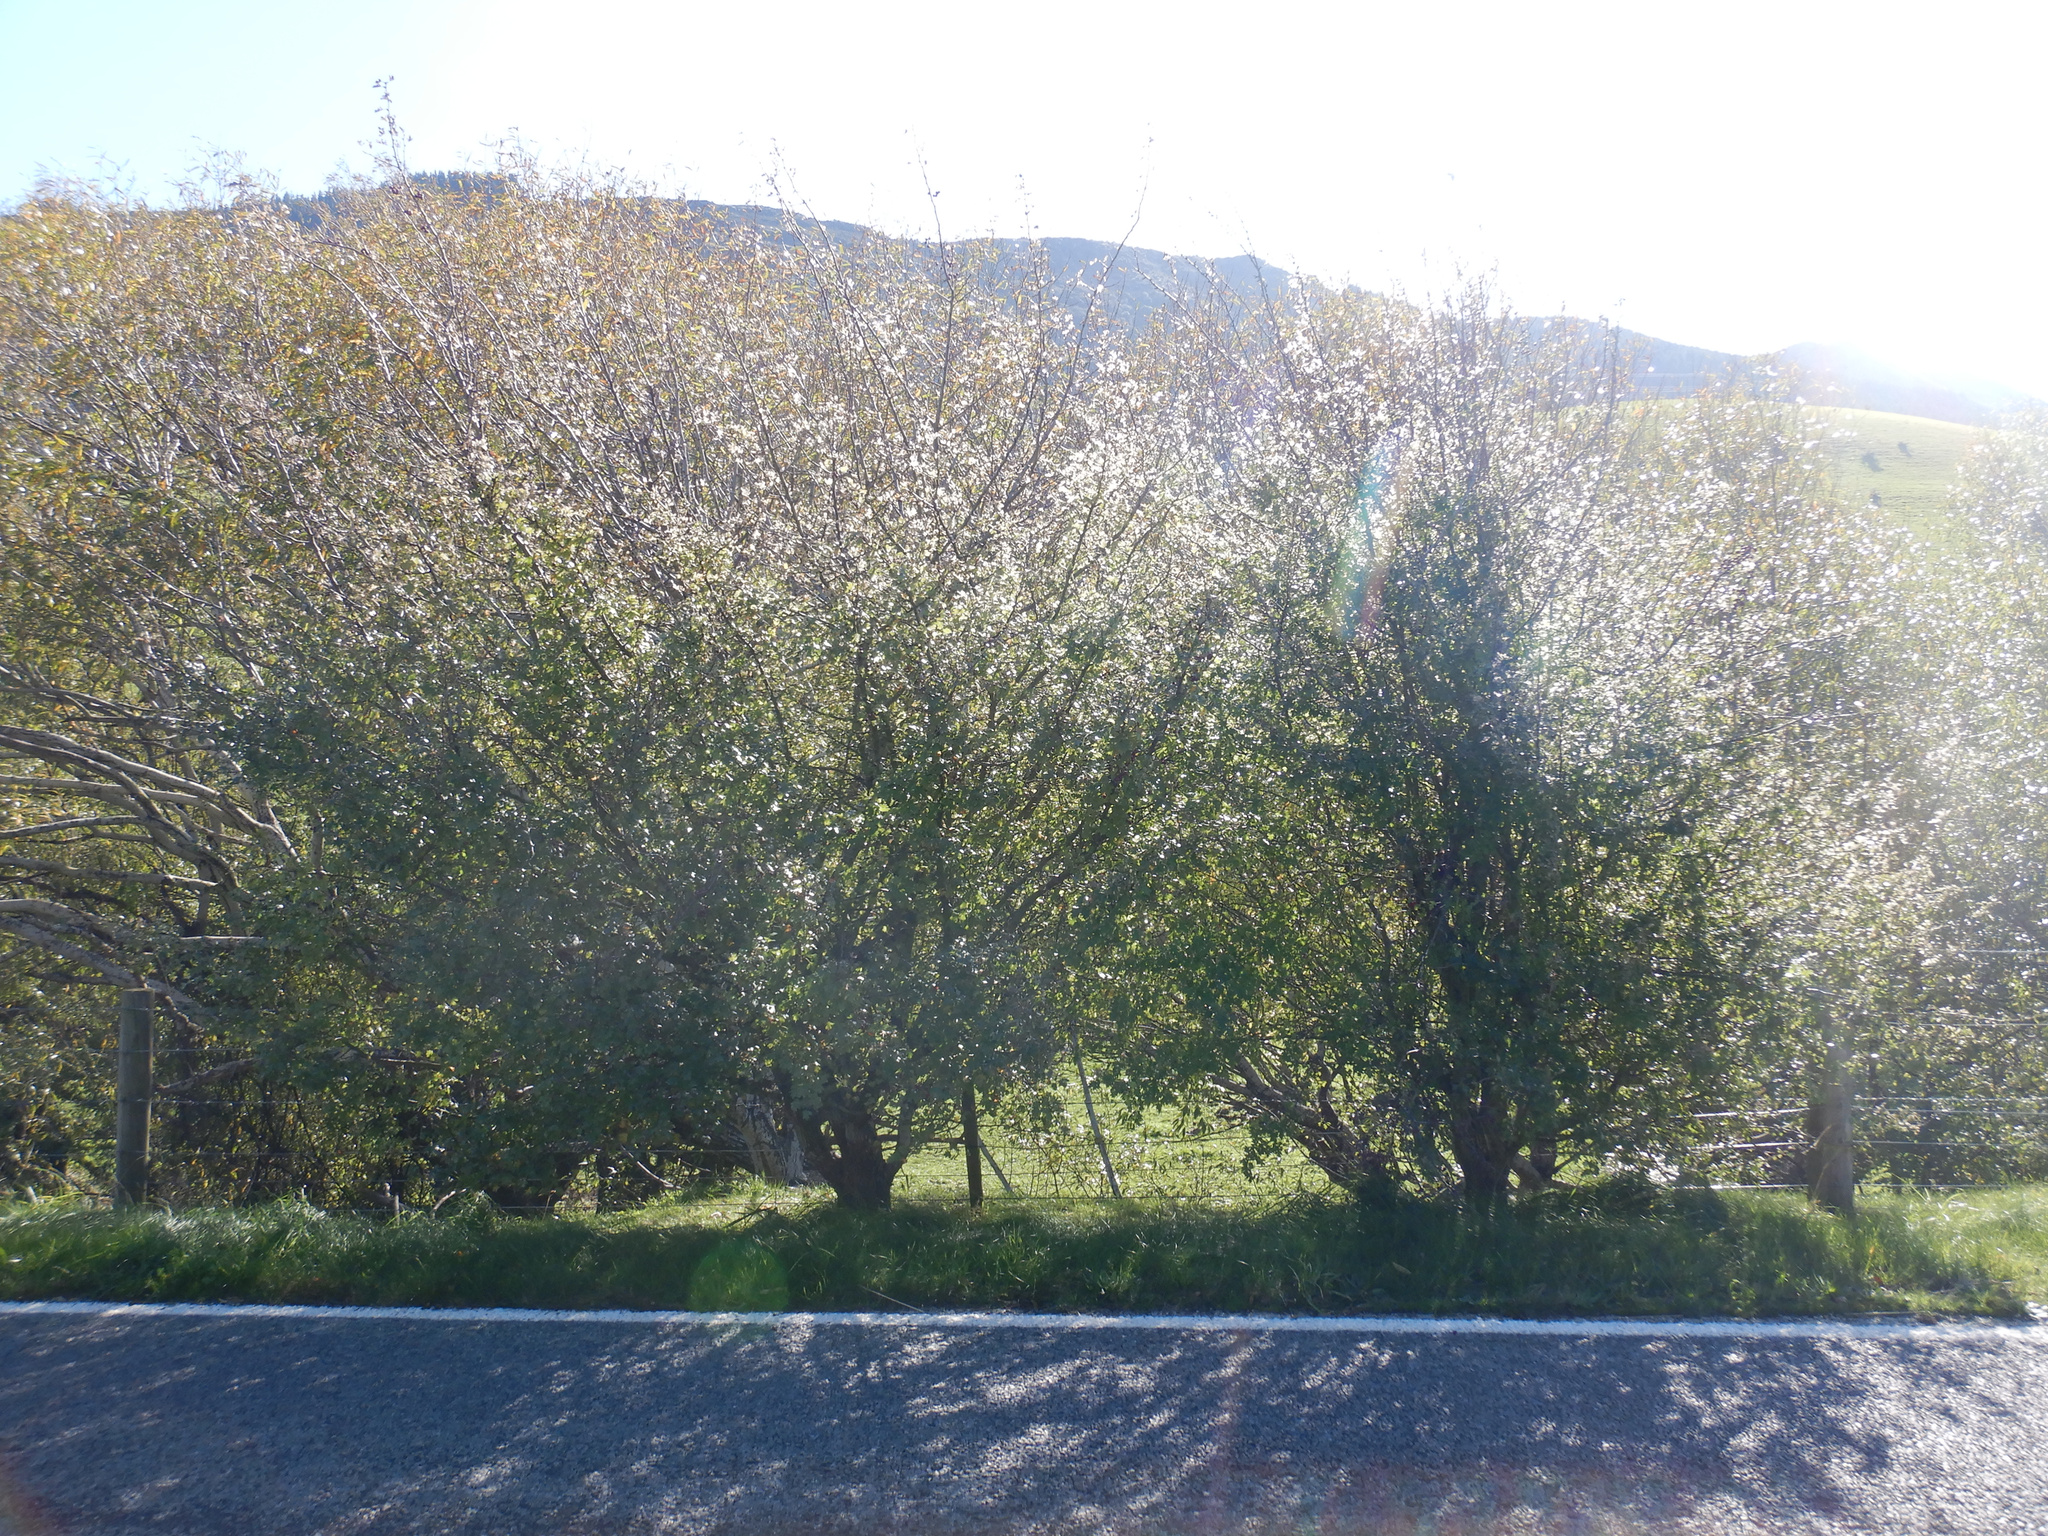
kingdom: Plantae
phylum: Tracheophyta
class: Magnoliopsida
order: Rosales
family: Rosaceae
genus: Crataegus
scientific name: Crataegus monogyna
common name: Hawthorn
